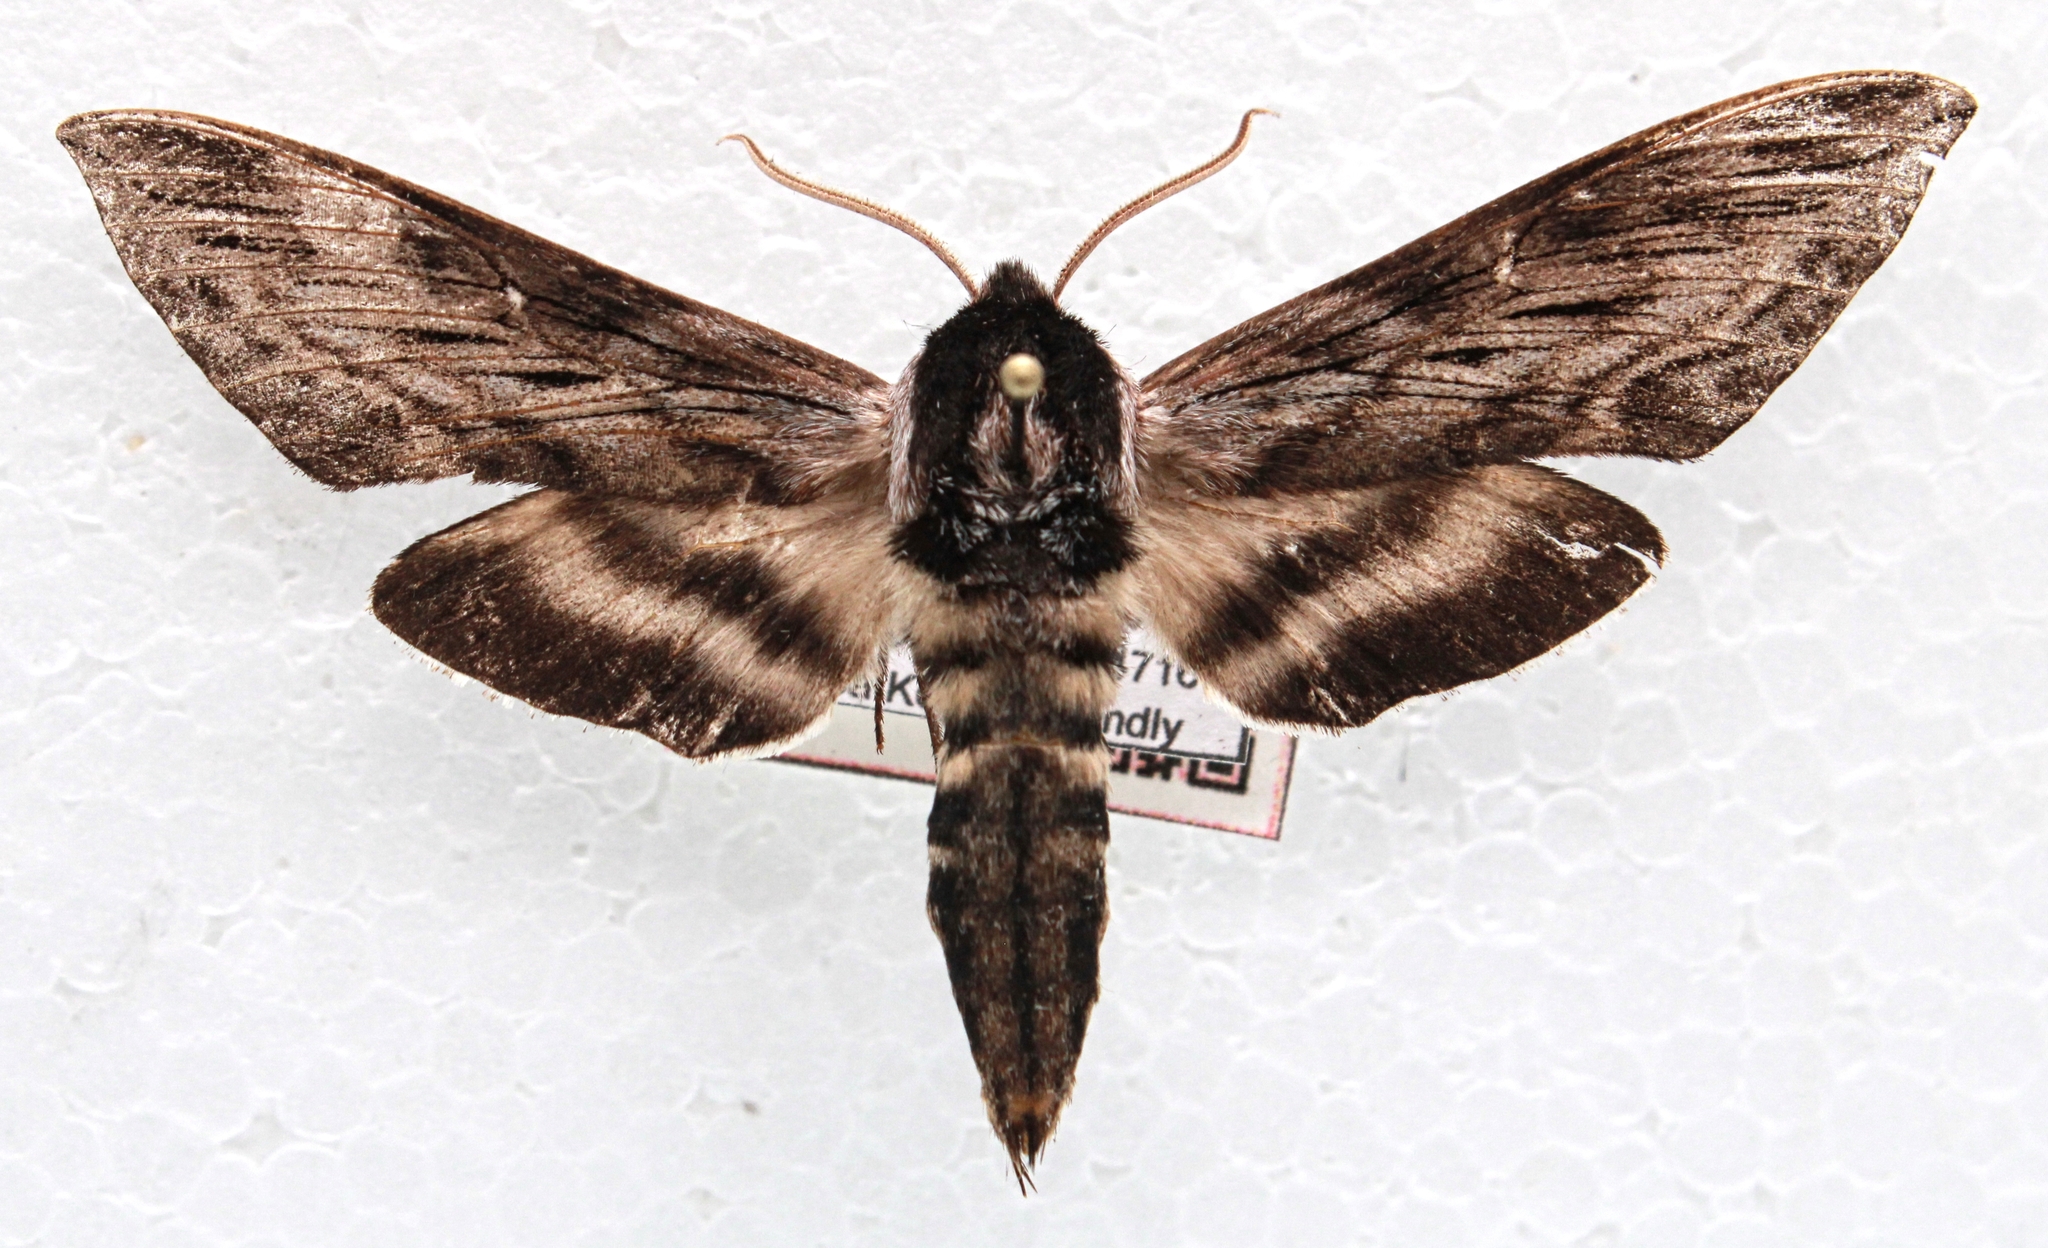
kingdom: Animalia
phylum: Arthropoda
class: Insecta
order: Lepidoptera
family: Sphingidae
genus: Sphinx
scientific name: Sphinx gordius
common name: Apple sphinx
